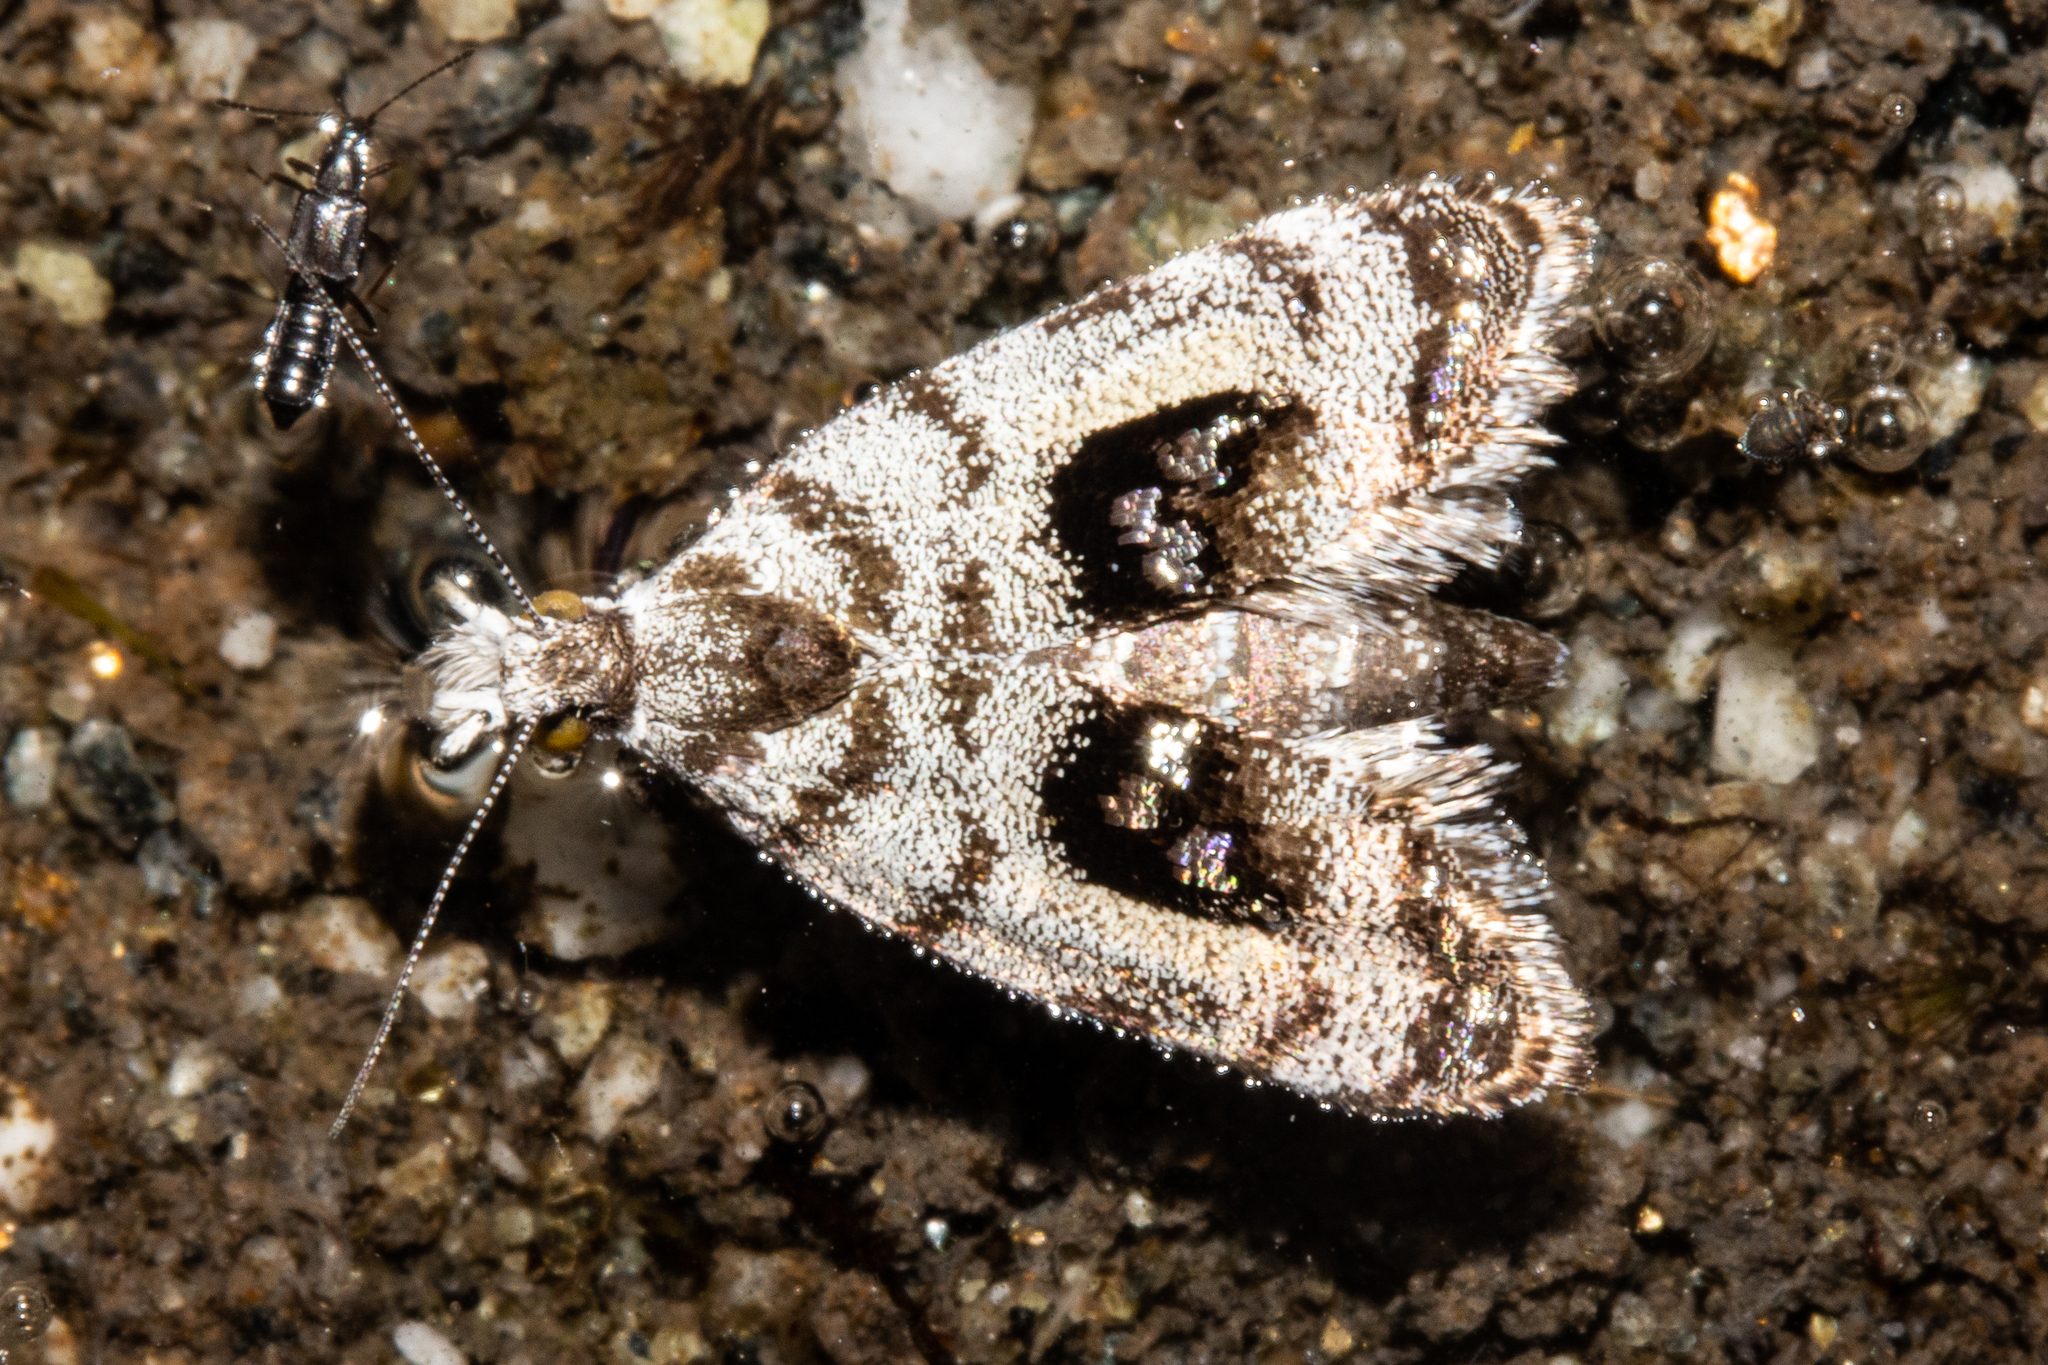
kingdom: Animalia
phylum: Arthropoda
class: Insecta
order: Lepidoptera
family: Choreutidae
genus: Asterivora
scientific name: Asterivora inspoliata
